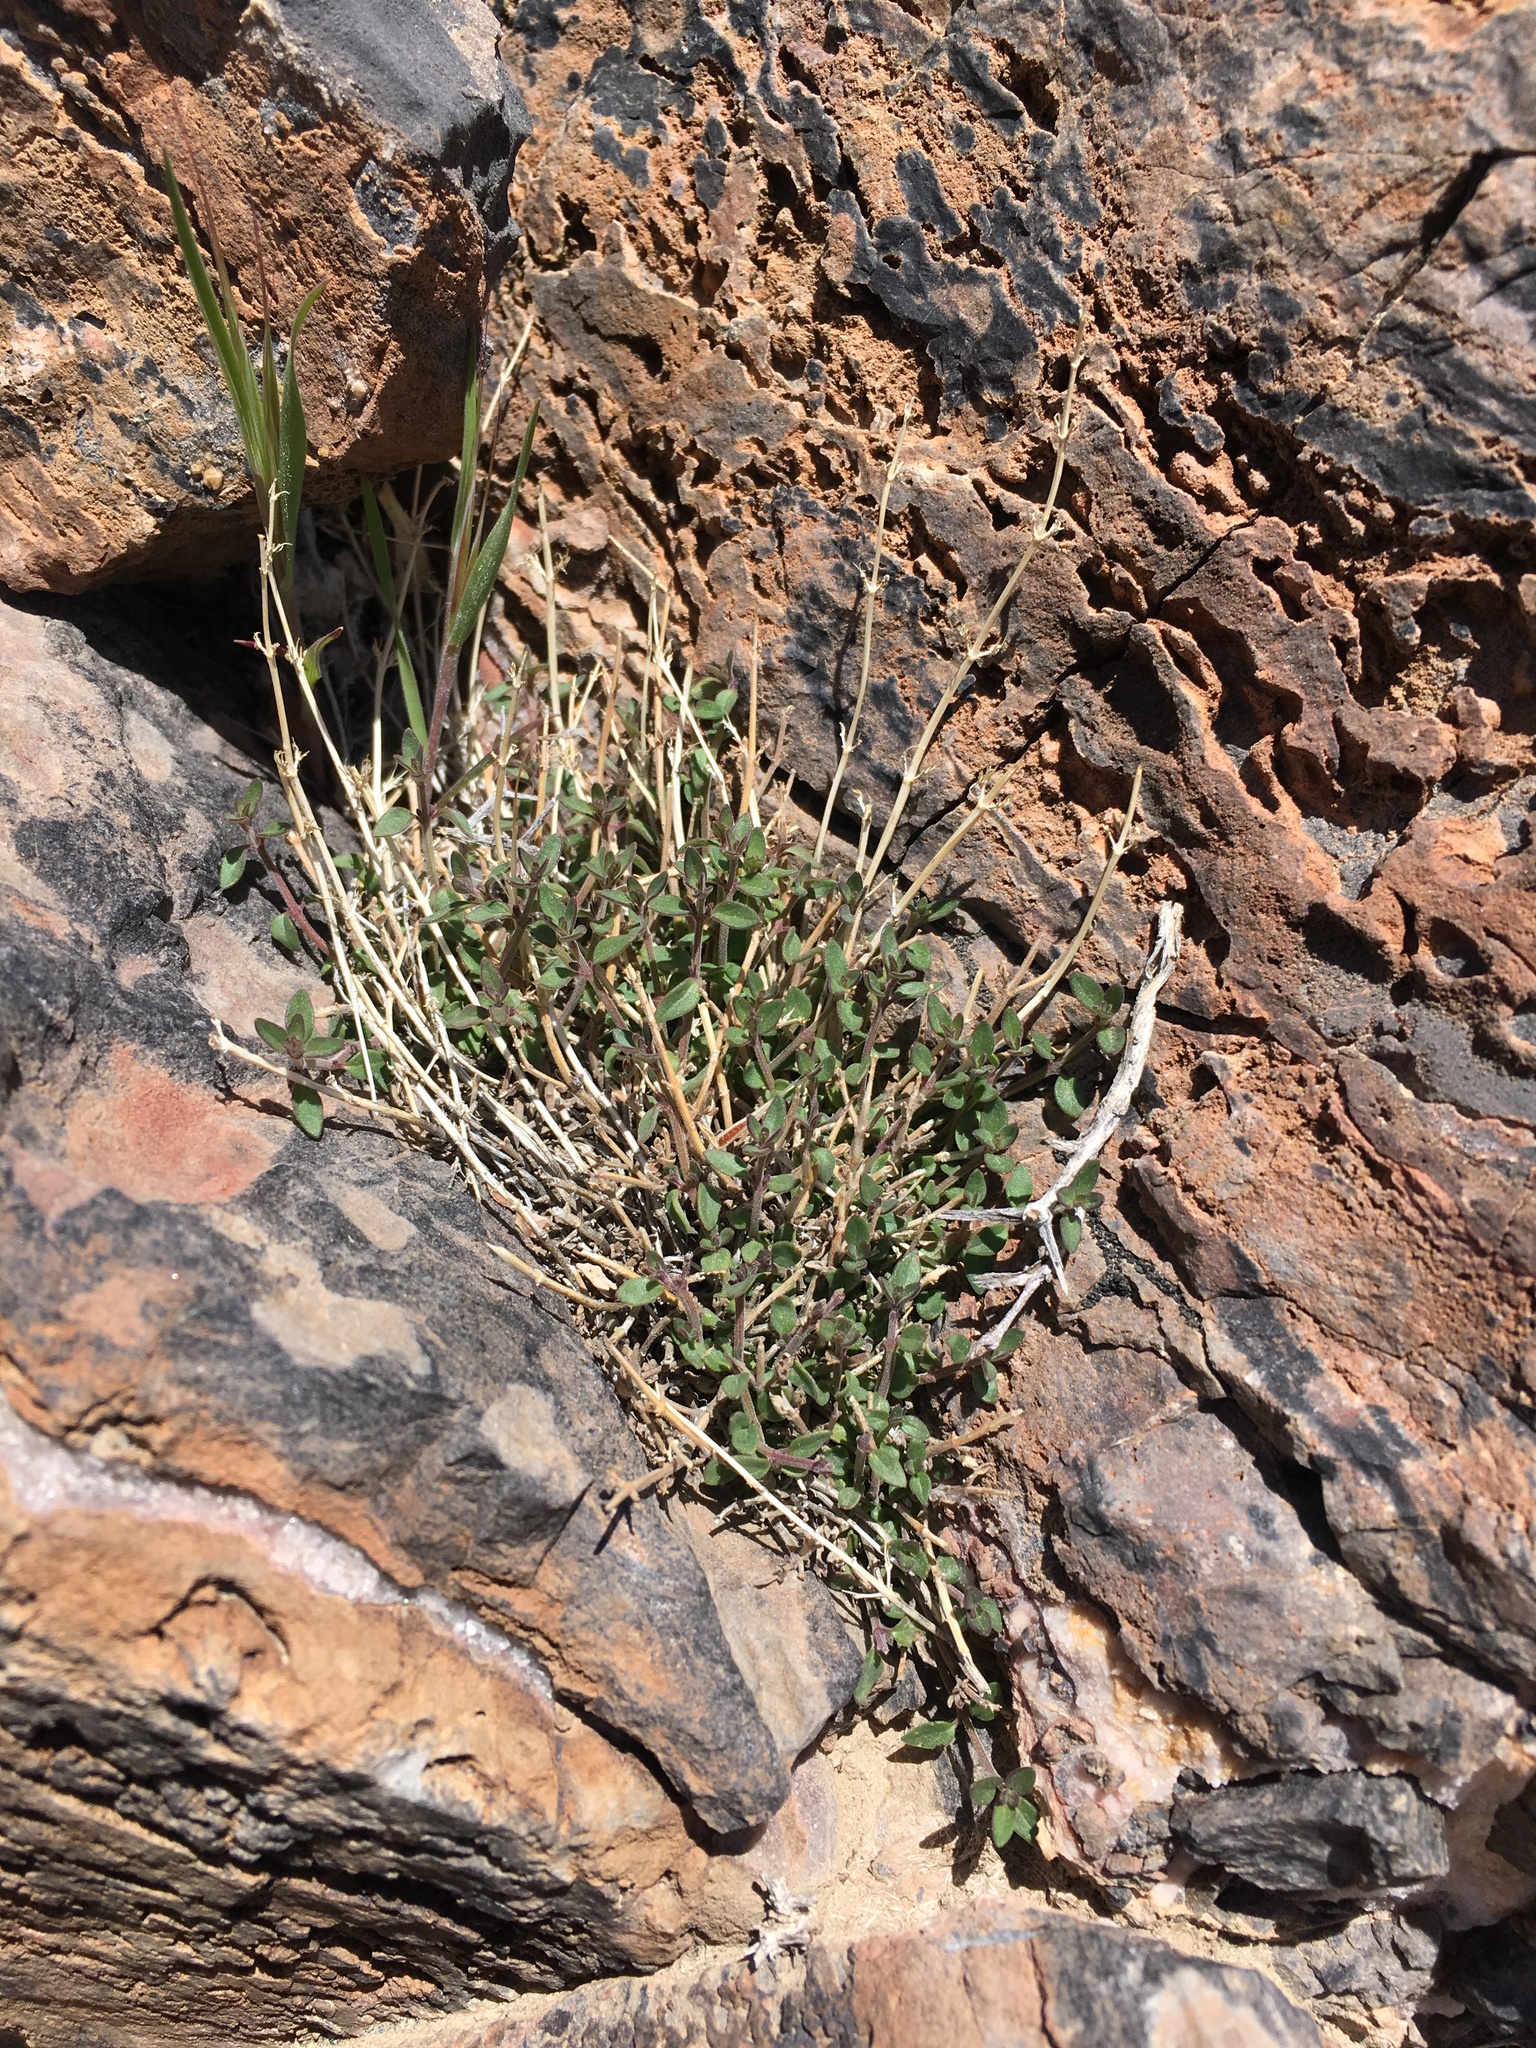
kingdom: Plantae
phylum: Tracheophyta
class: Magnoliopsida
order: Lamiales
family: Lamiaceae
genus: Hedeoma
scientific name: Hedeoma nana
